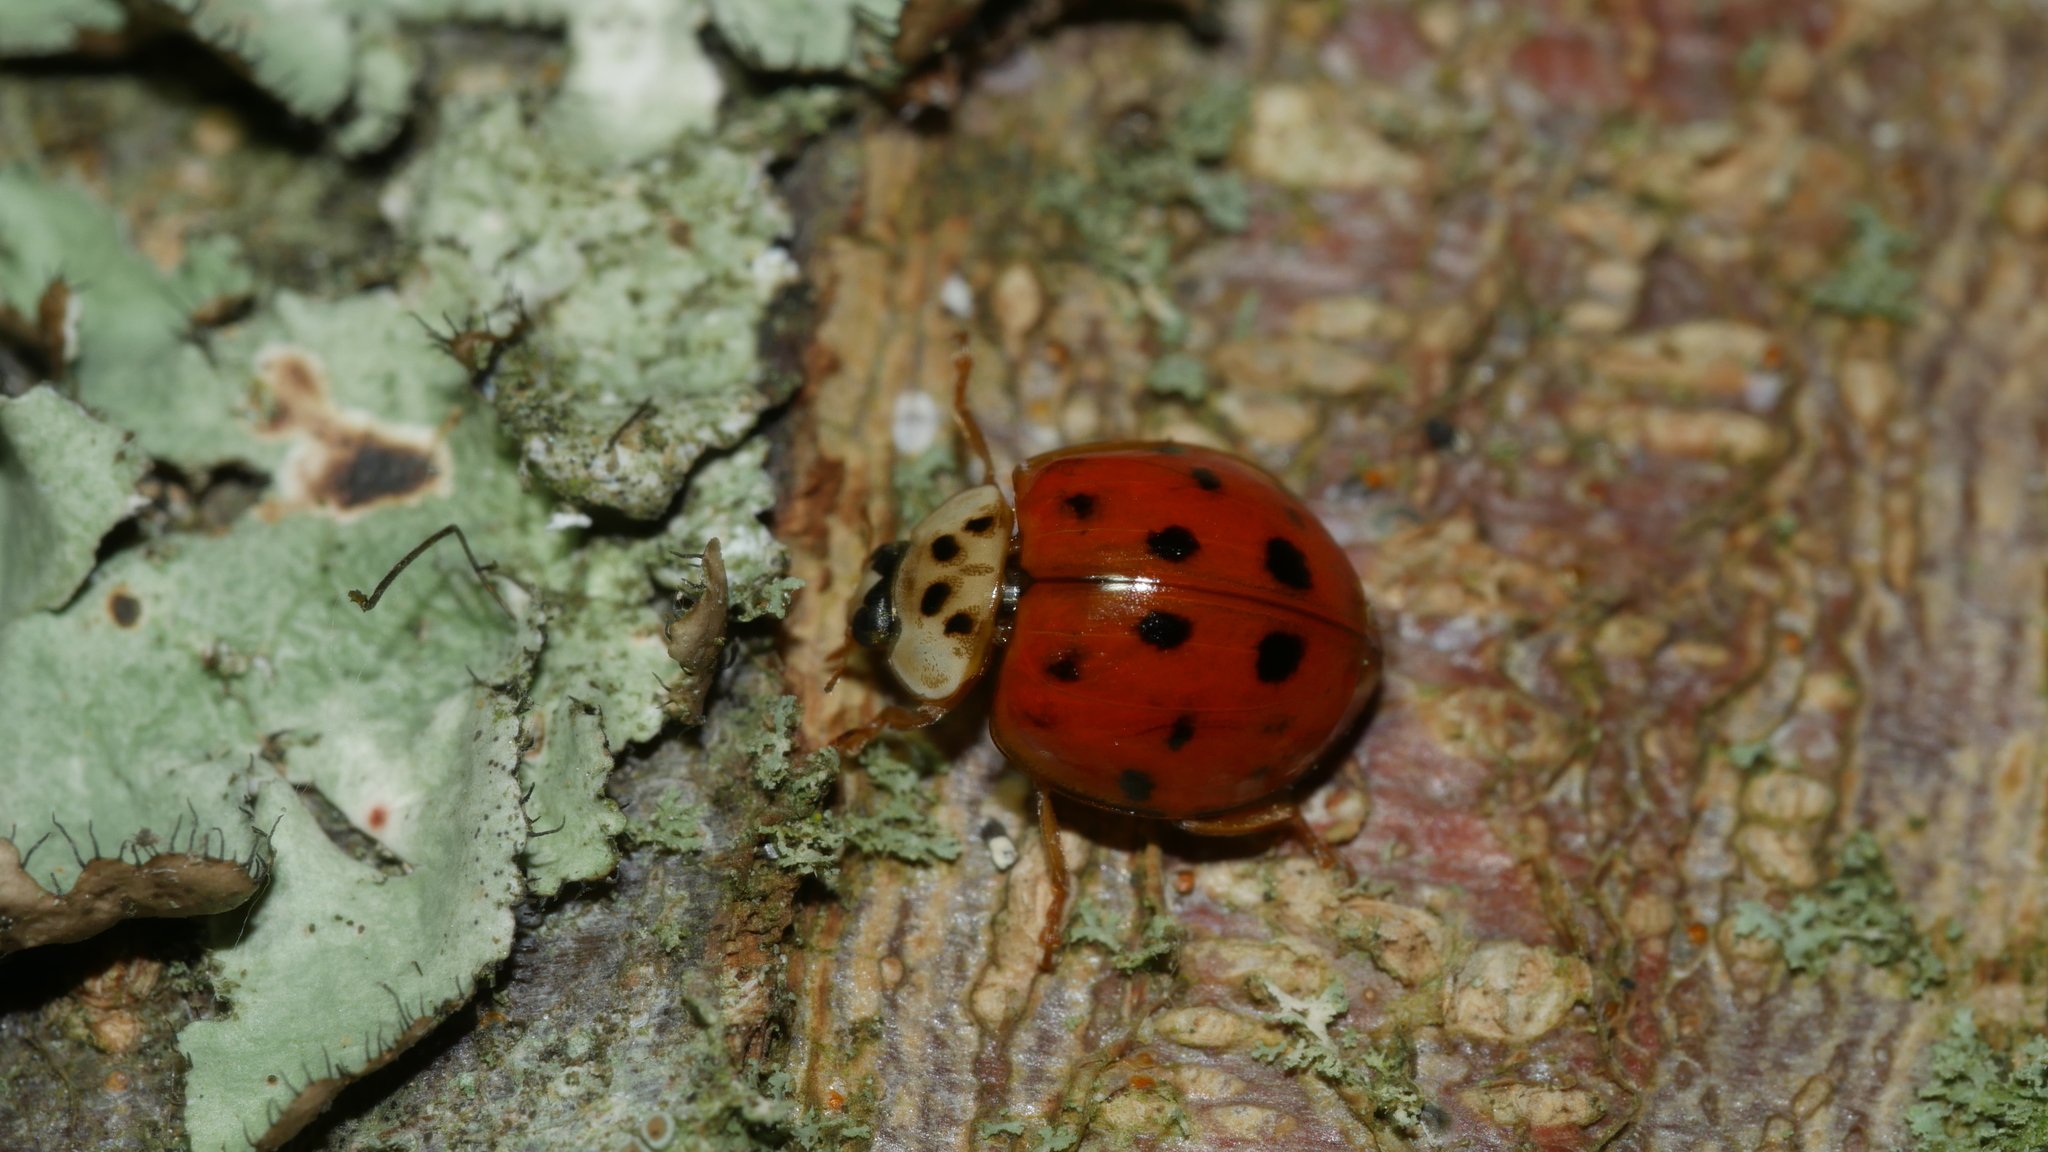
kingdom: Animalia
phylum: Arthropoda
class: Insecta
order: Coleoptera
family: Coccinellidae
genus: Harmonia
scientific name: Harmonia axyridis
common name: Harlequin ladybird
